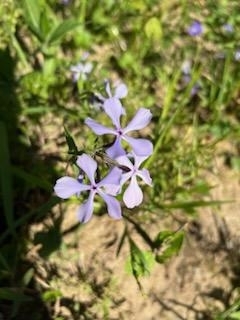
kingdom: Plantae
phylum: Tracheophyta
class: Magnoliopsida
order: Ericales
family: Polemoniaceae
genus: Phlox
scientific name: Phlox divaricata
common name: Blue phlox
